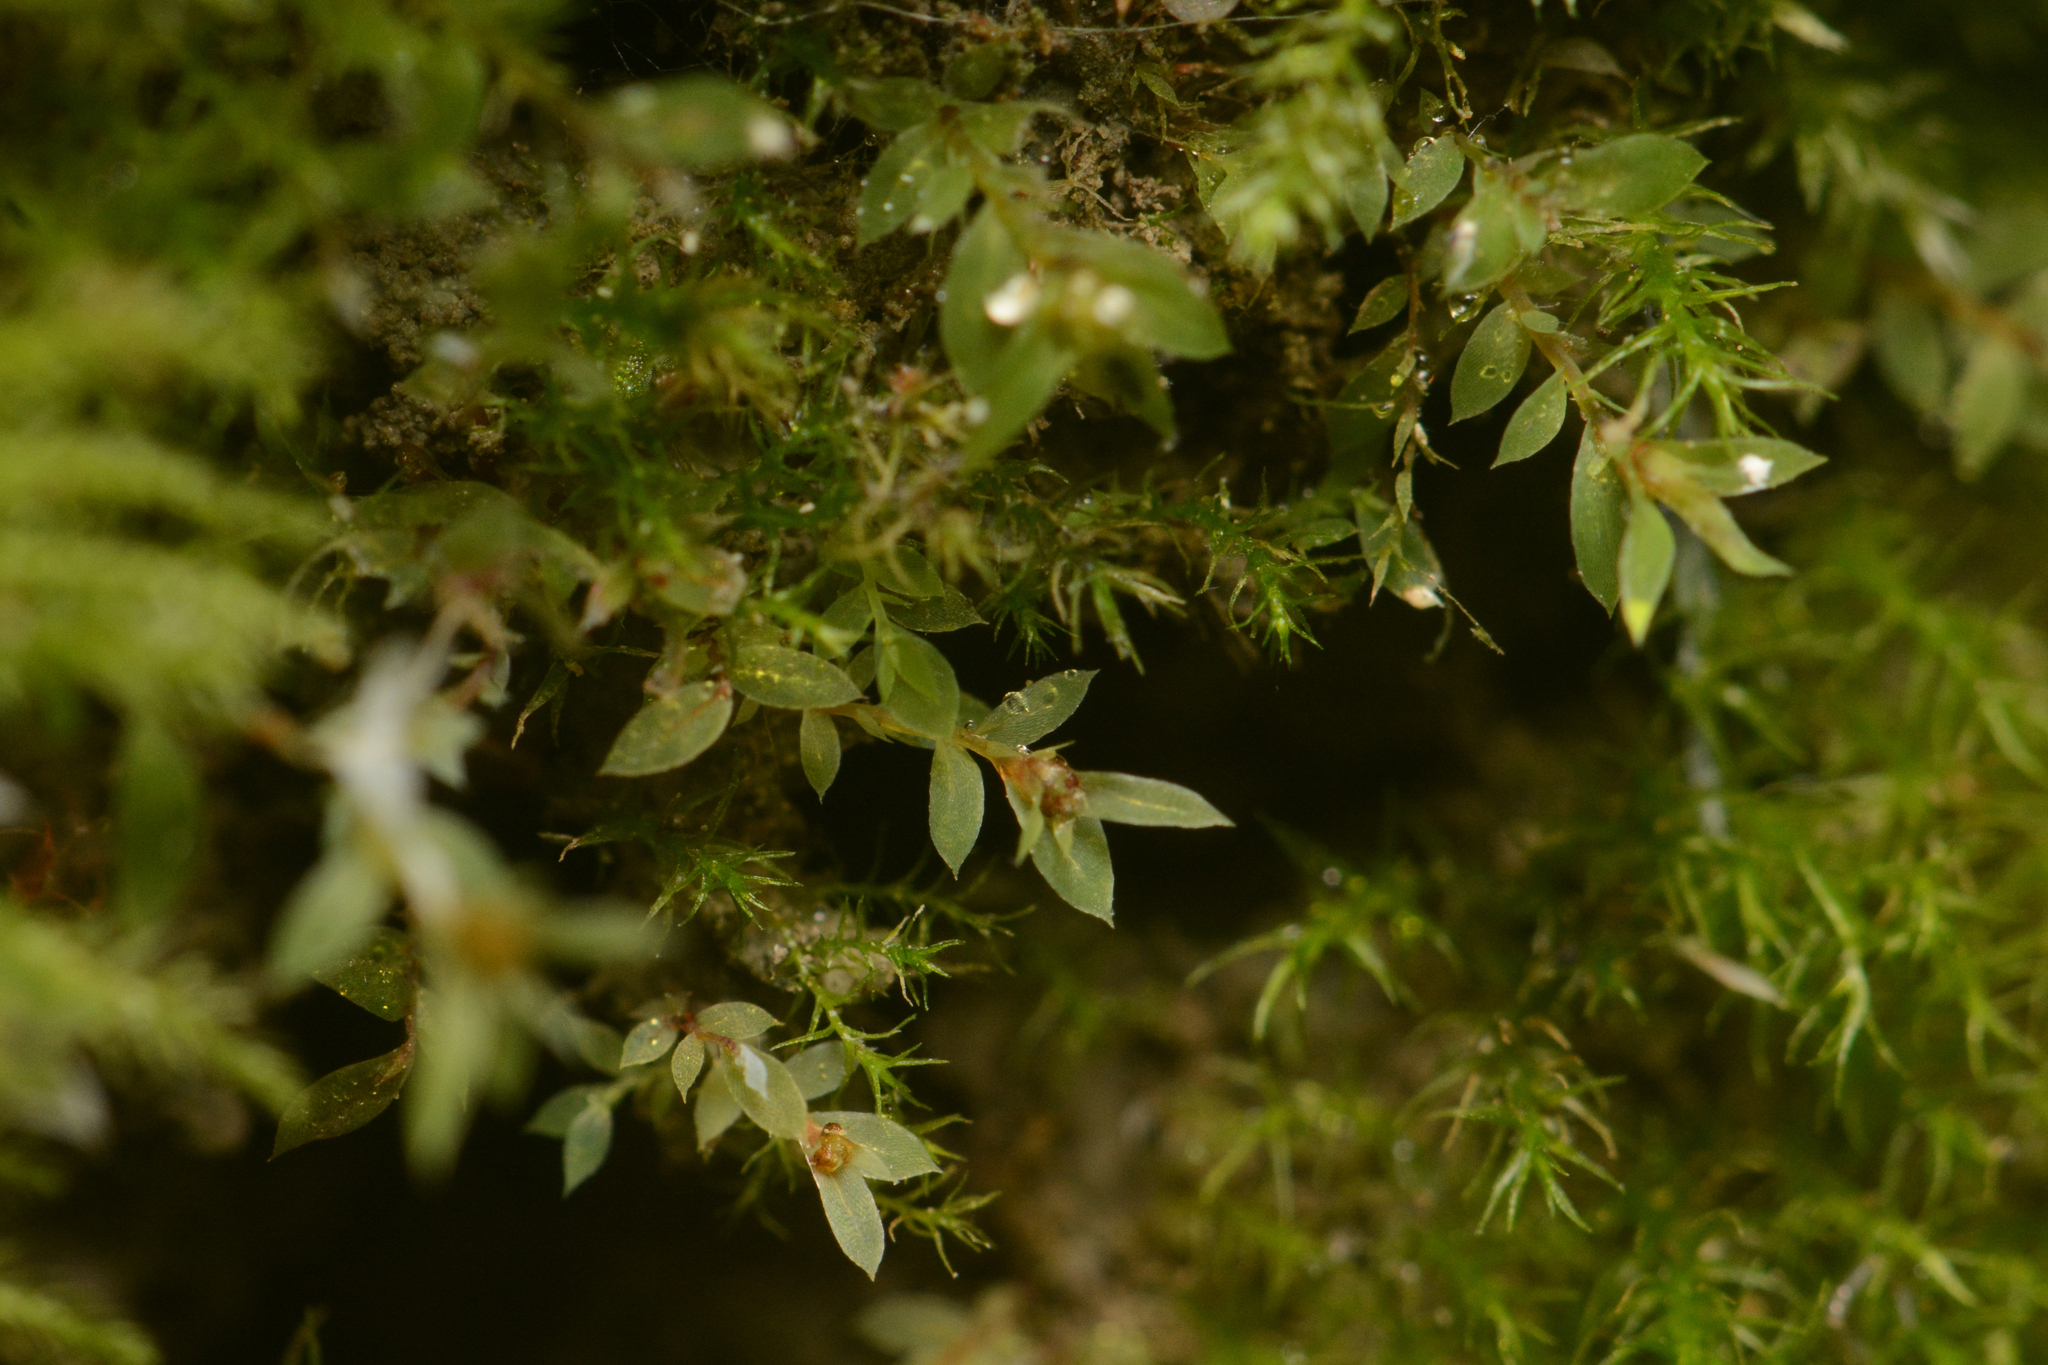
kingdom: Plantae
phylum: Bryophyta
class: Bryopsida
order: Bryales
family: Mniaceae
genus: Epipterygium
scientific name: Epipterygium tozeri
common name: Tozer's thread-moss
